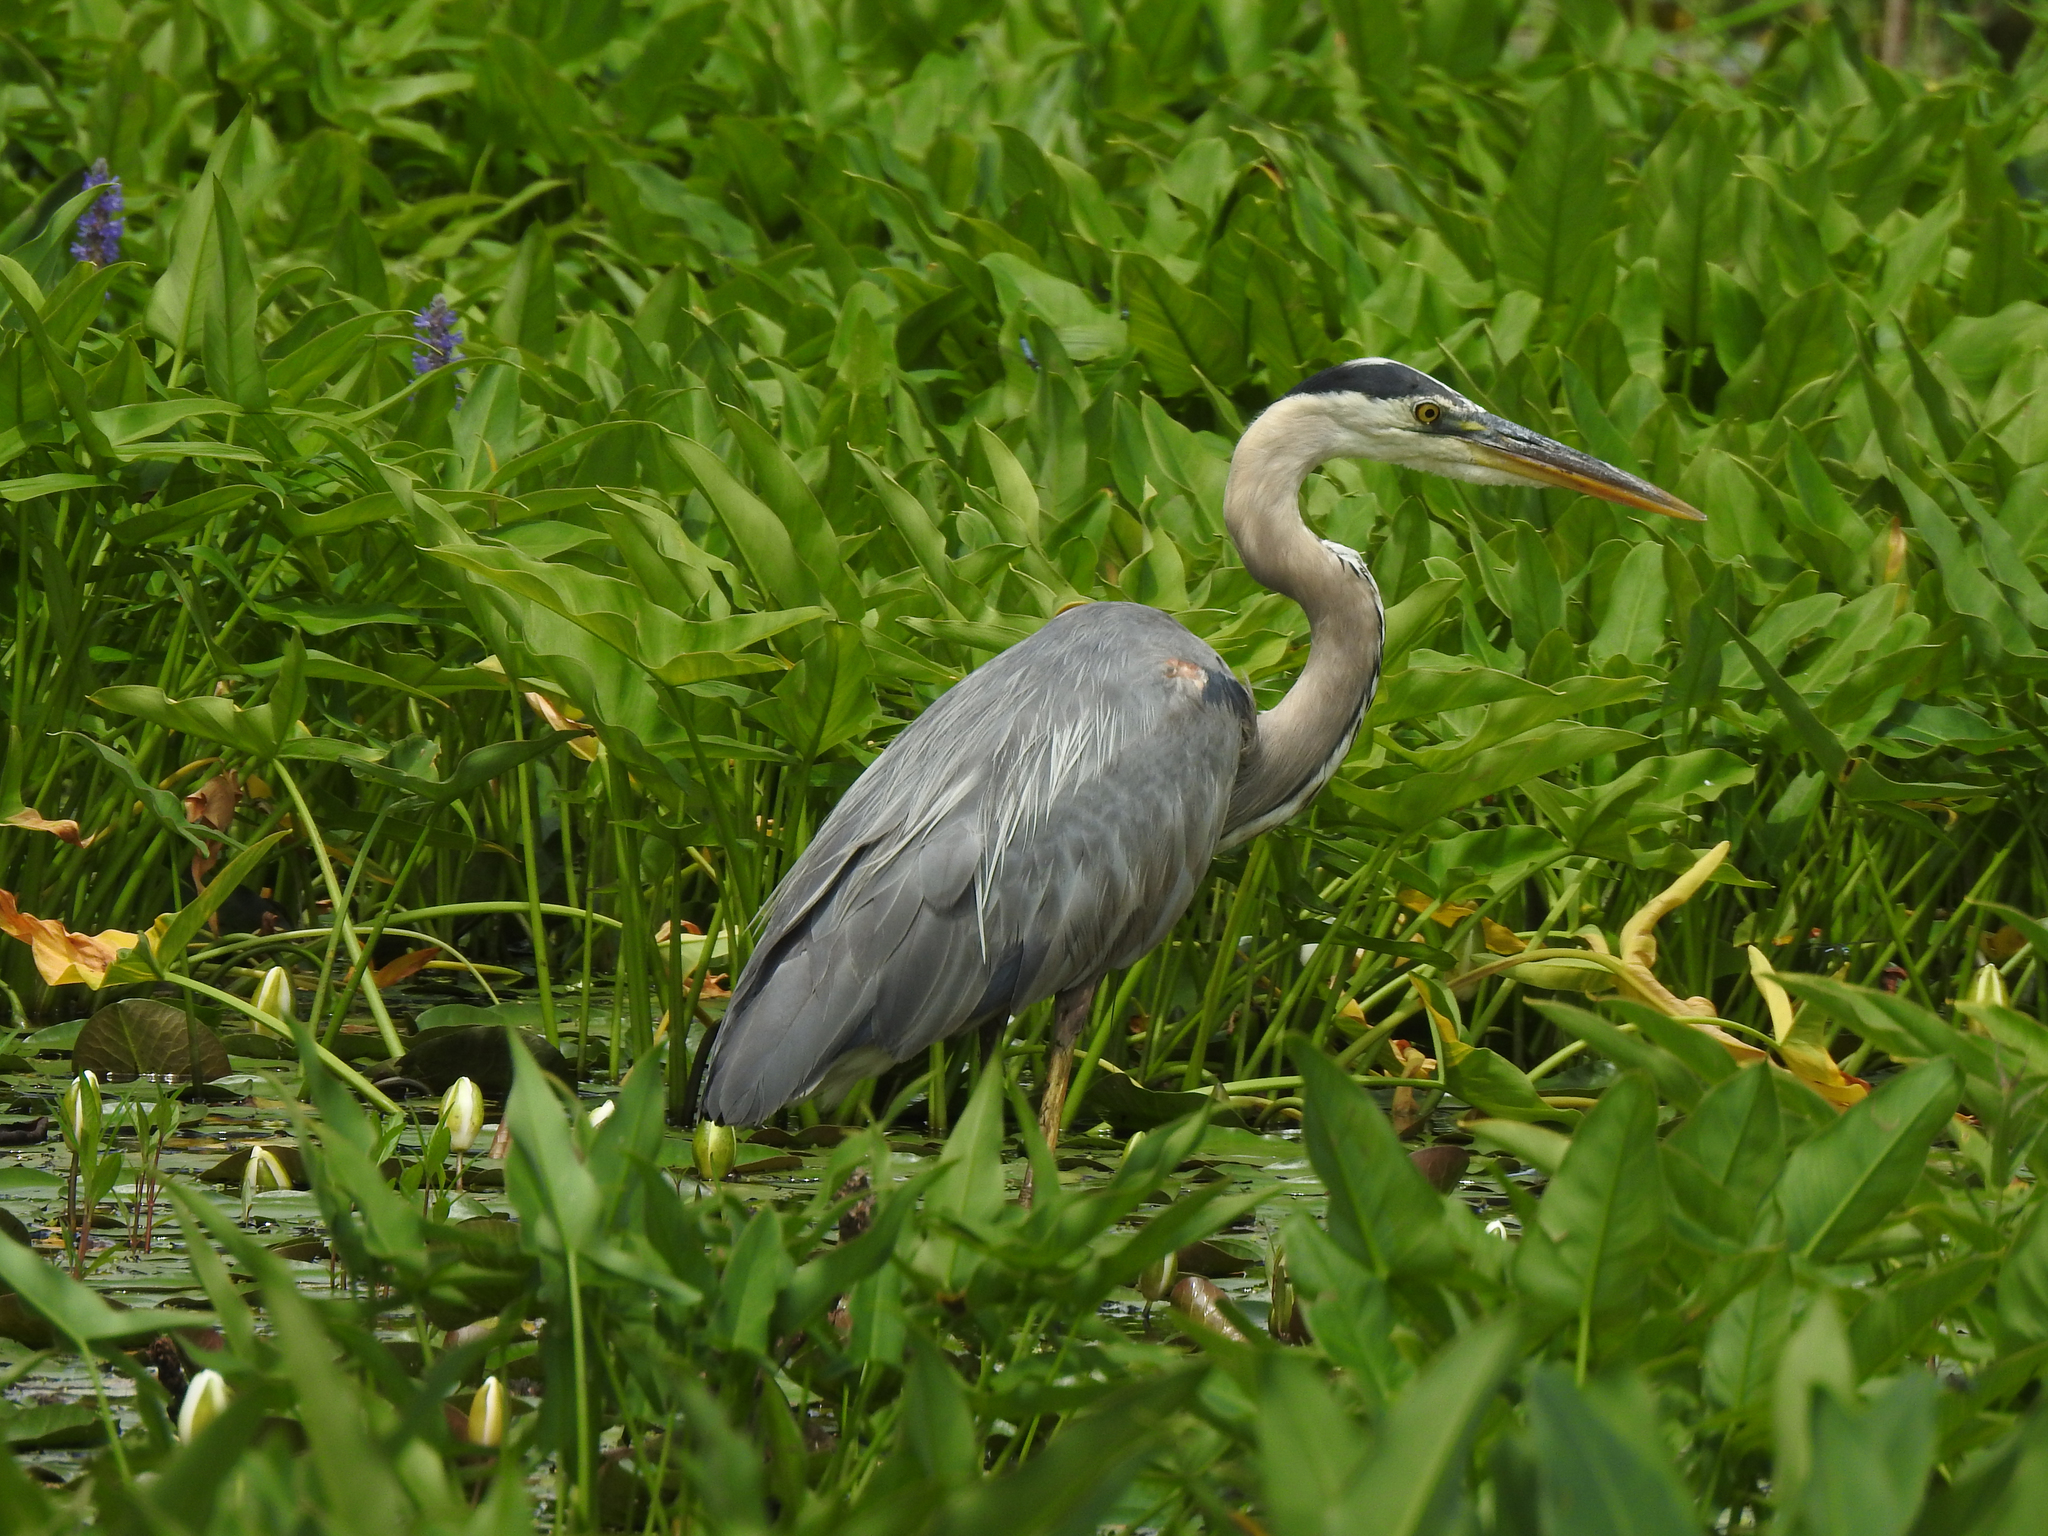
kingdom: Animalia
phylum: Chordata
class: Aves
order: Pelecaniformes
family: Ardeidae
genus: Ardea
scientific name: Ardea herodias
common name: Great blue heron
